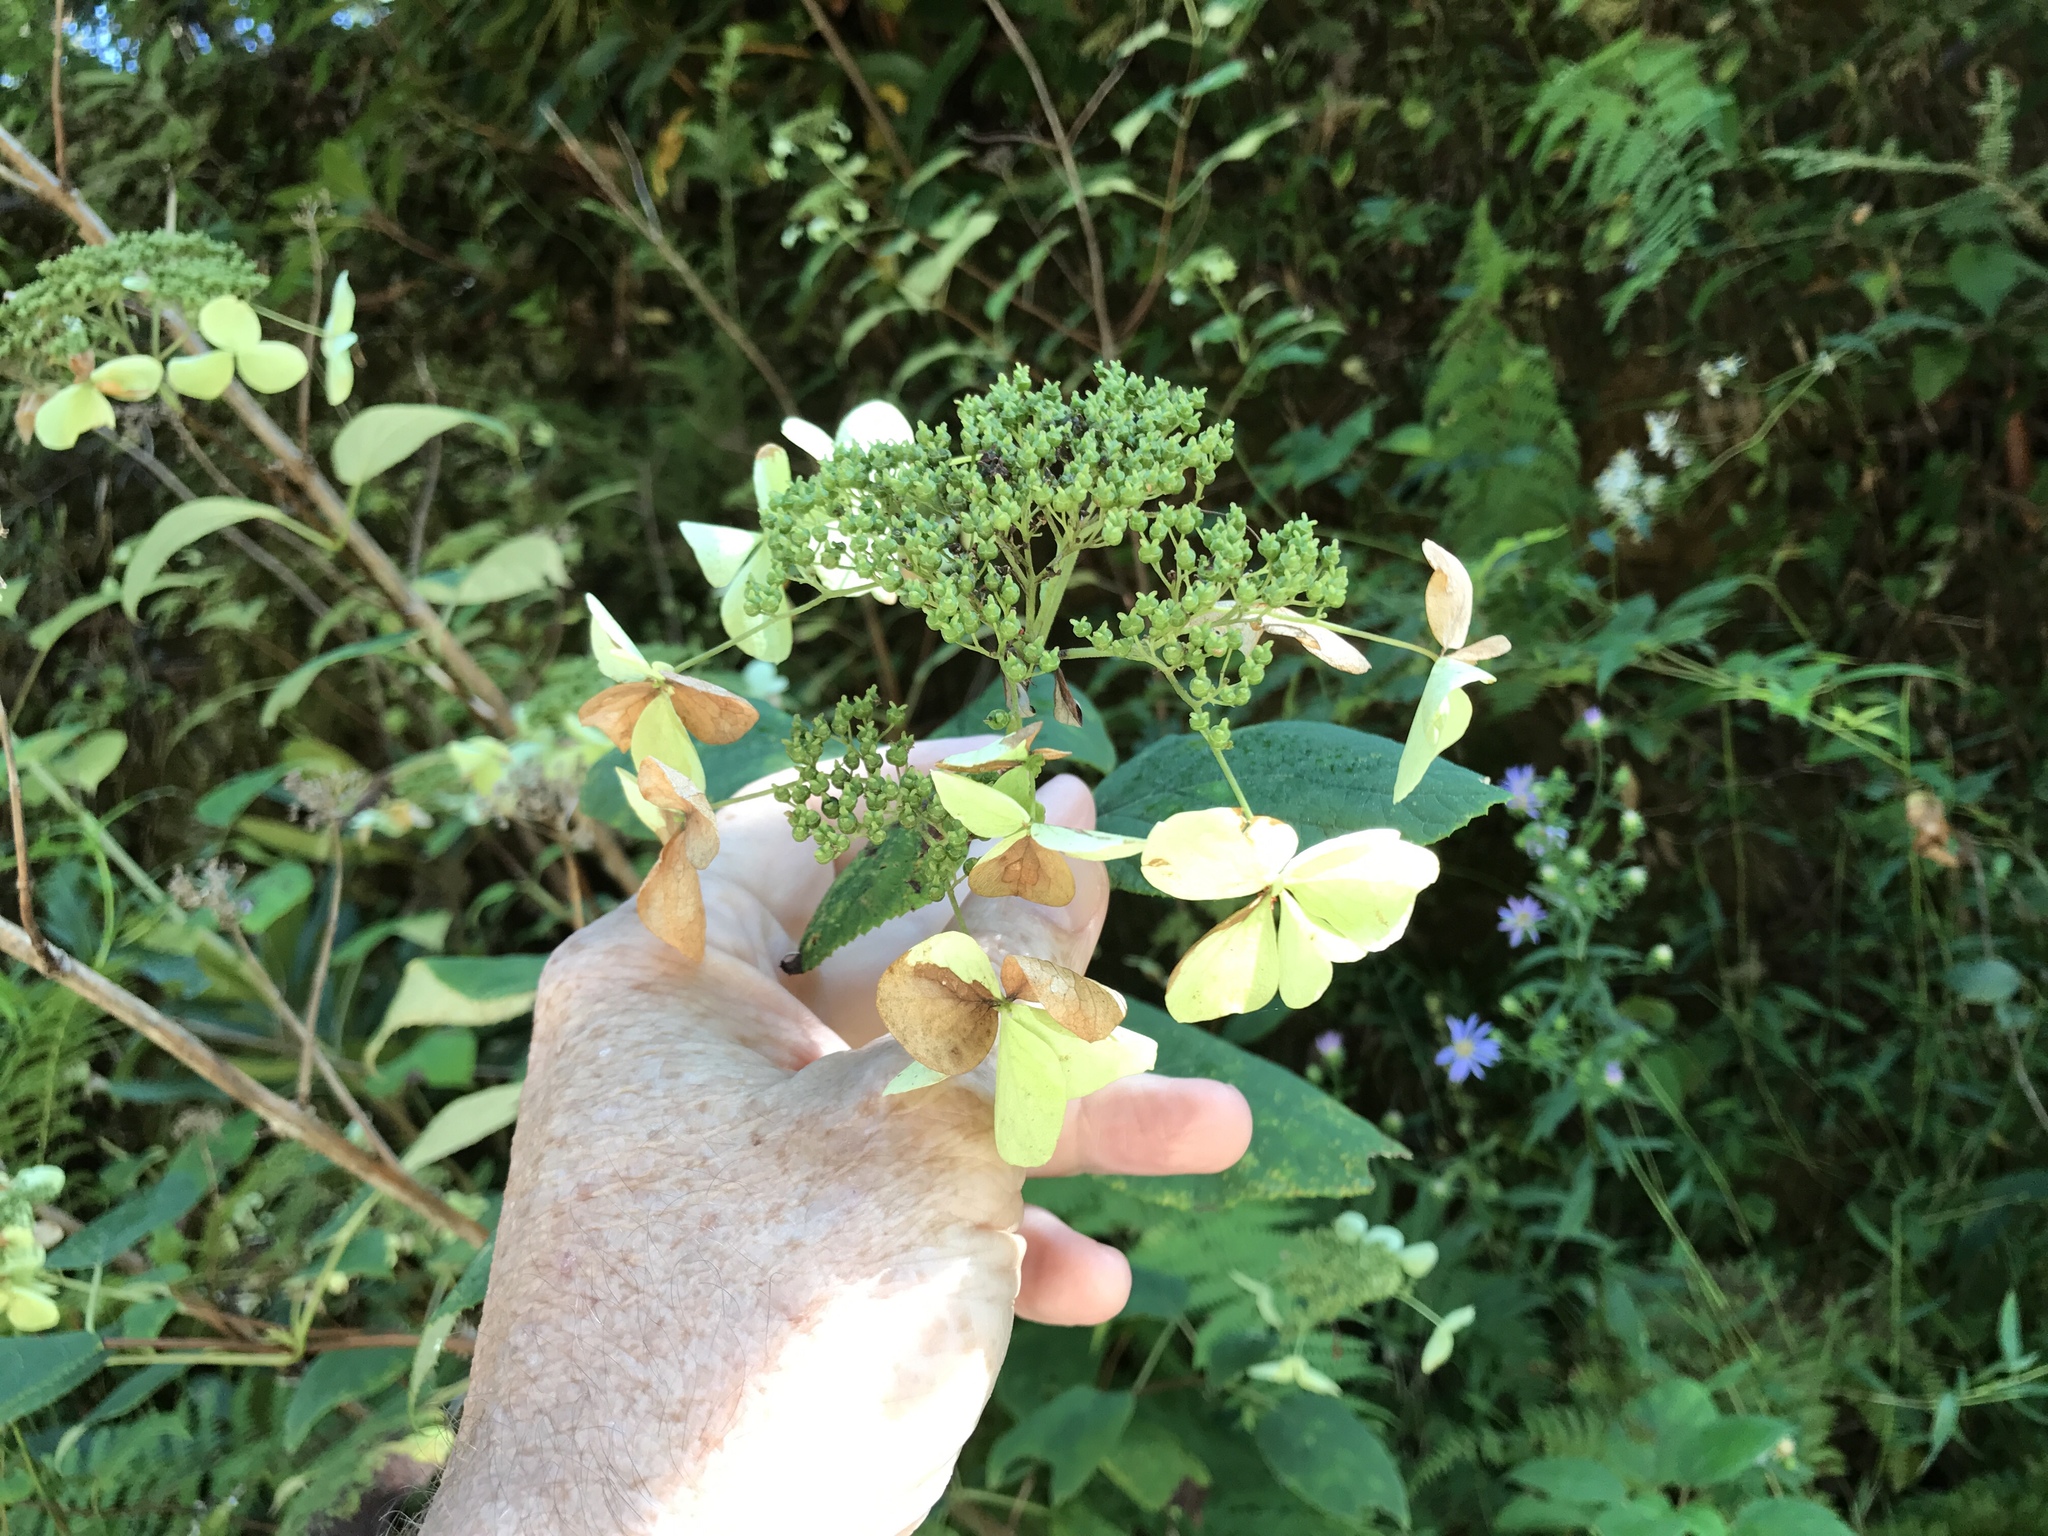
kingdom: Plantae
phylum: Tracheophyta
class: Magnoliopsida
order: Cornales
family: Hydrangeaceae
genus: Hydrangea
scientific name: Hydrangea radiata
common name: Silverleaf hydrangea
